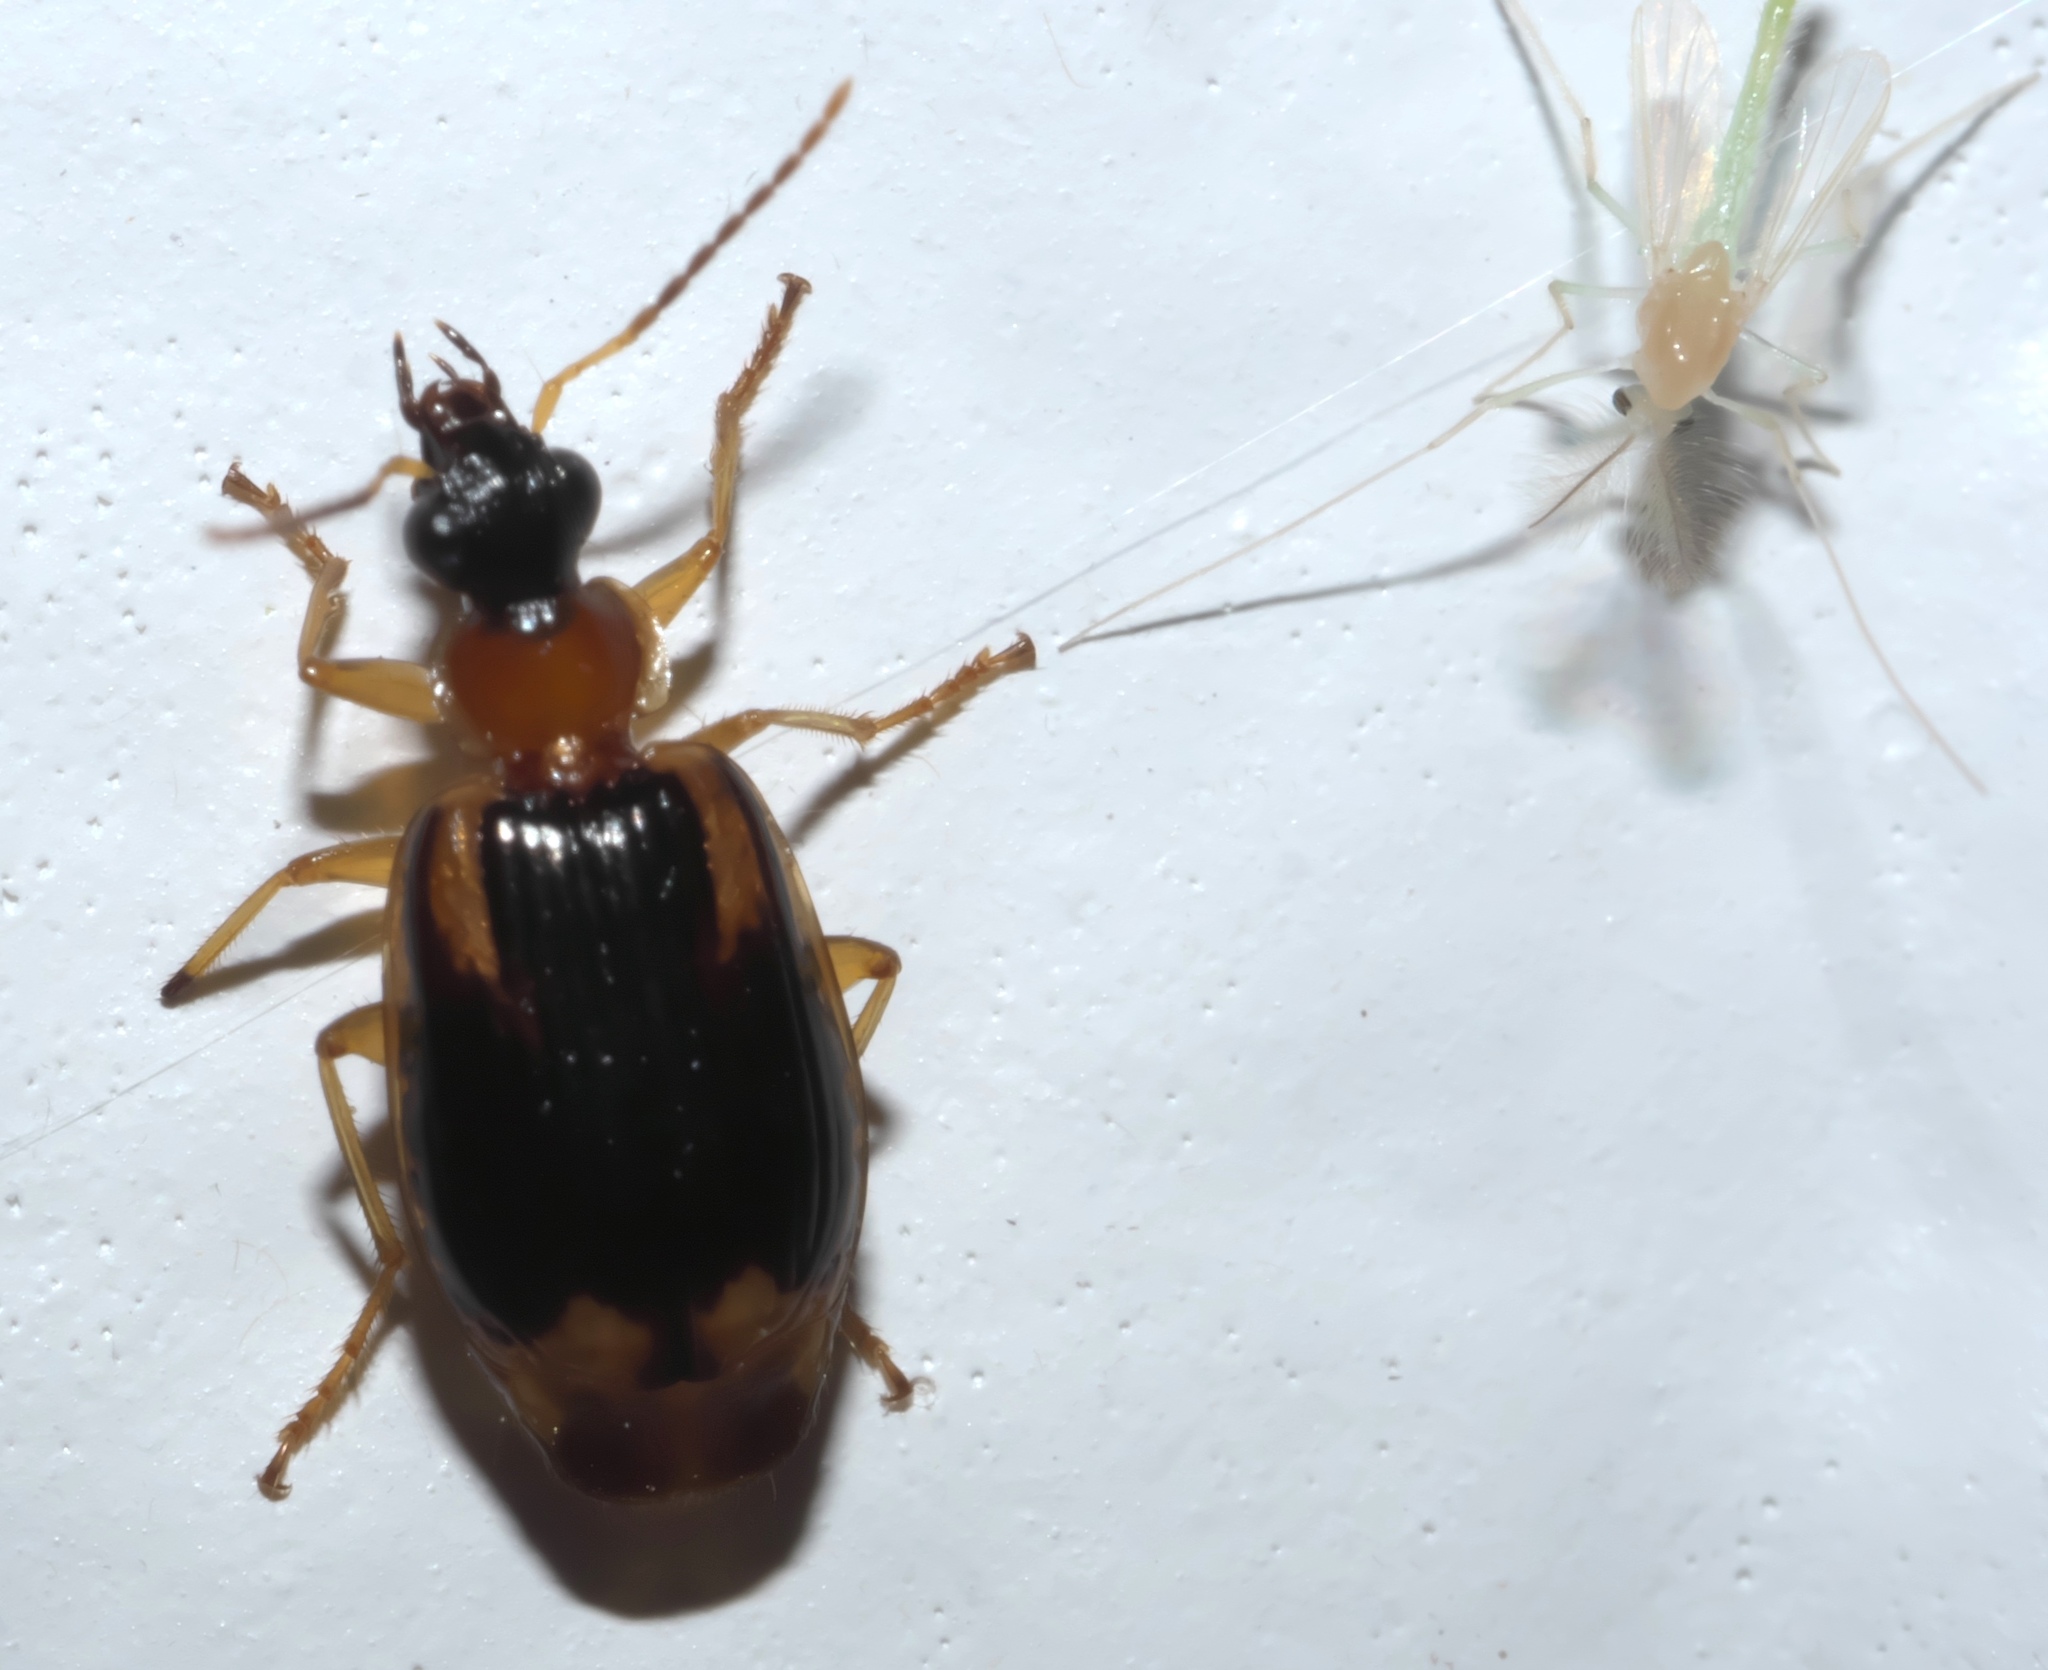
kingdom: Animalia
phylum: Arthropoda
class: Insecta
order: Coleoptera
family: Carabidae
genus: Lebia
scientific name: Lebia analis
